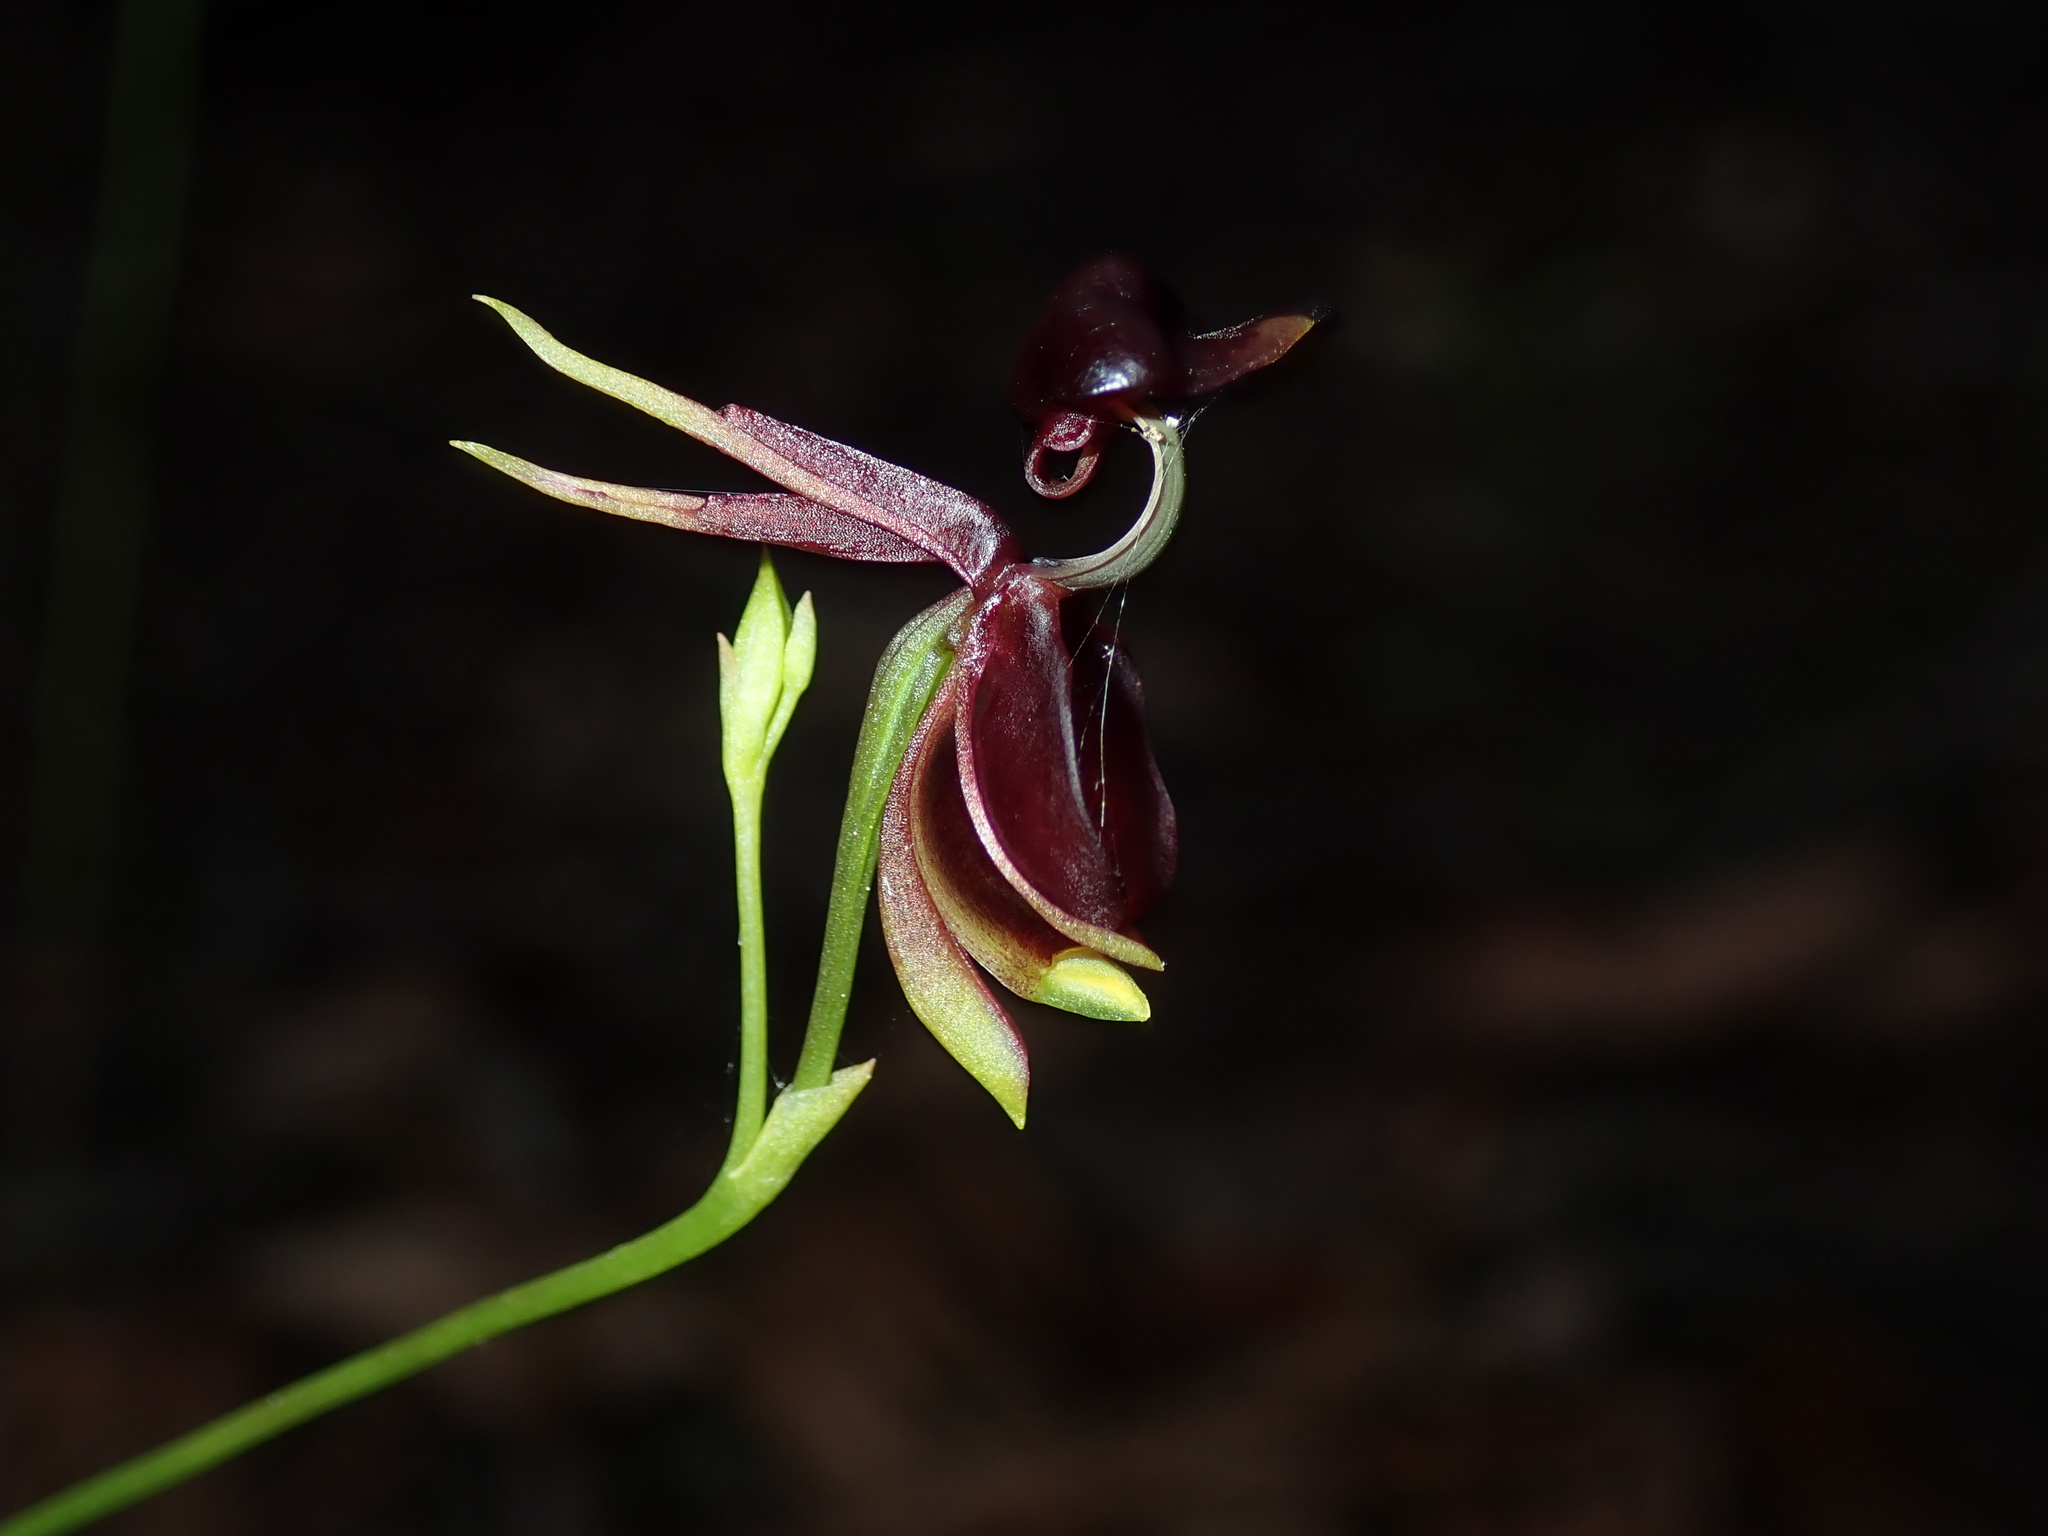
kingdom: Plantae
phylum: Tracheophyta
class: Liliopsida
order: Asparagales
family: Orchidaceae
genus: Caleana
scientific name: Caleana major
